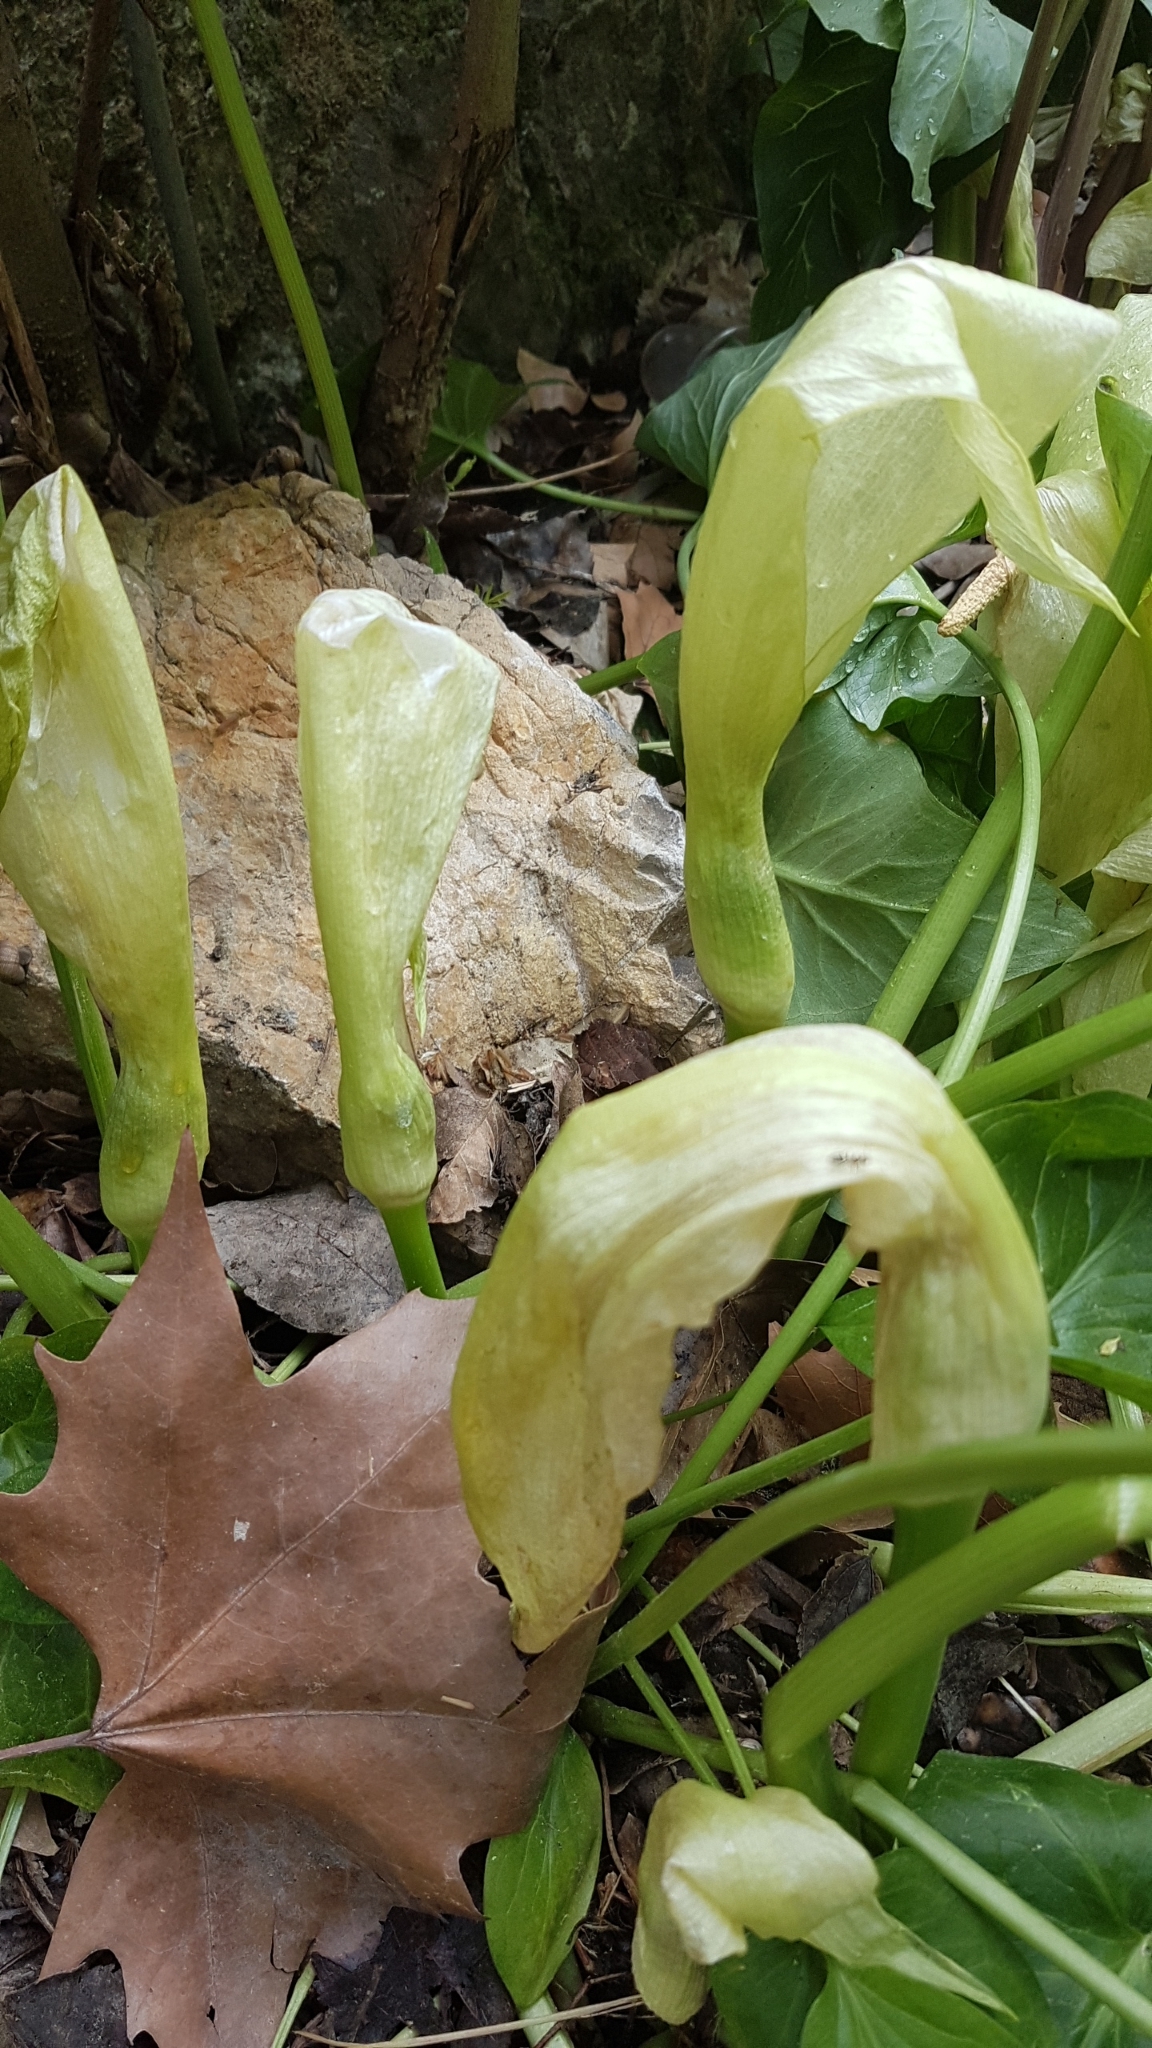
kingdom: Plantae
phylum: Tracheophyta
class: Liliopsida
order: Alismatales
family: Araceae
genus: Arum
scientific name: Arum italicum
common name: Italian lords-and-ladies
